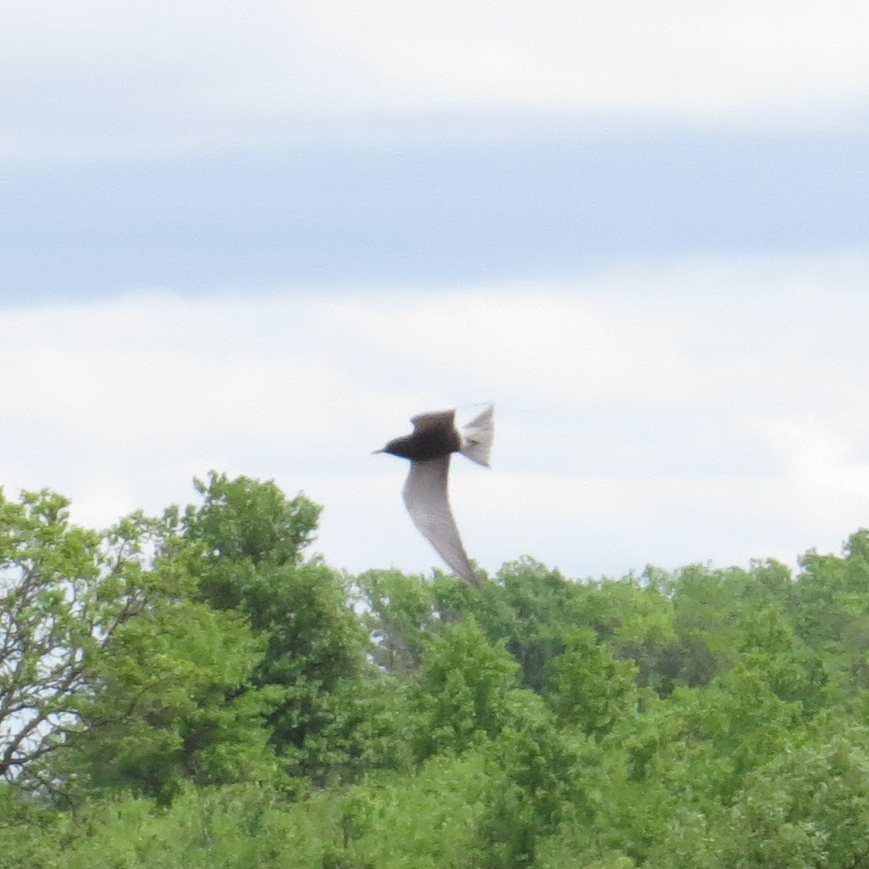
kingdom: Animalia
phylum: Chordata
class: Aves
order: Charadriiformes
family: Laridae
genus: Chlidonias
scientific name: Chlidonias niger
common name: Black tern
